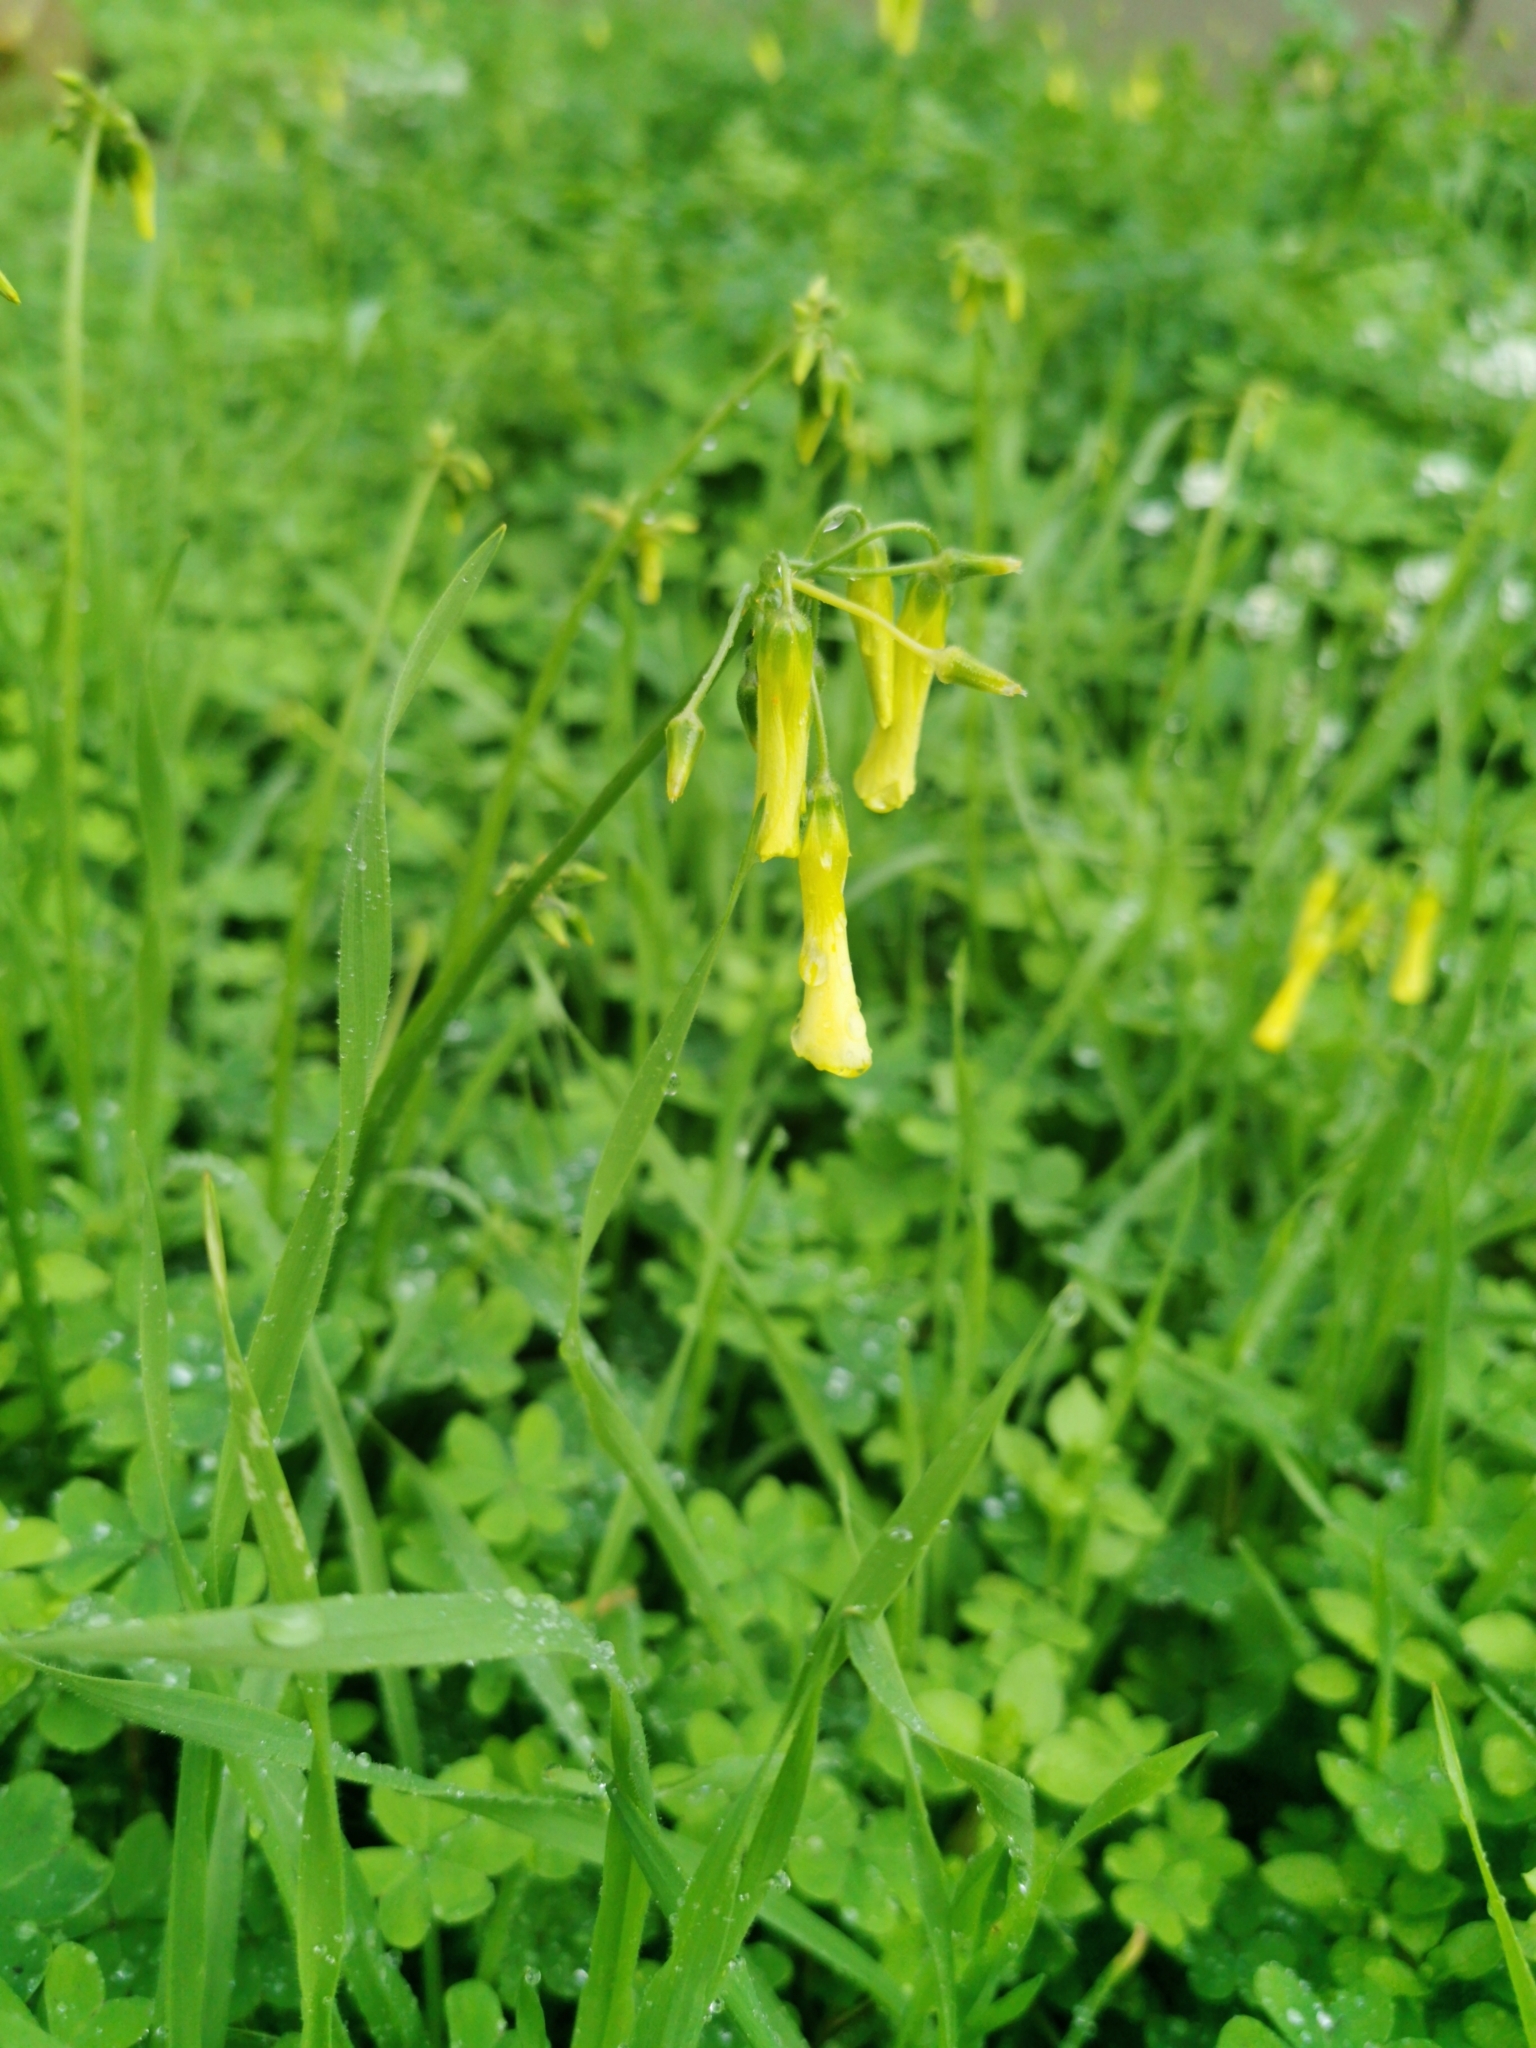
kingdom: Plantae
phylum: Tracheophyta
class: Magnoliopsida
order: Oxalidales
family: Oxalidaceae
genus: Oxalis
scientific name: Oxalis pes-caprae
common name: Bermuda-buttercup
